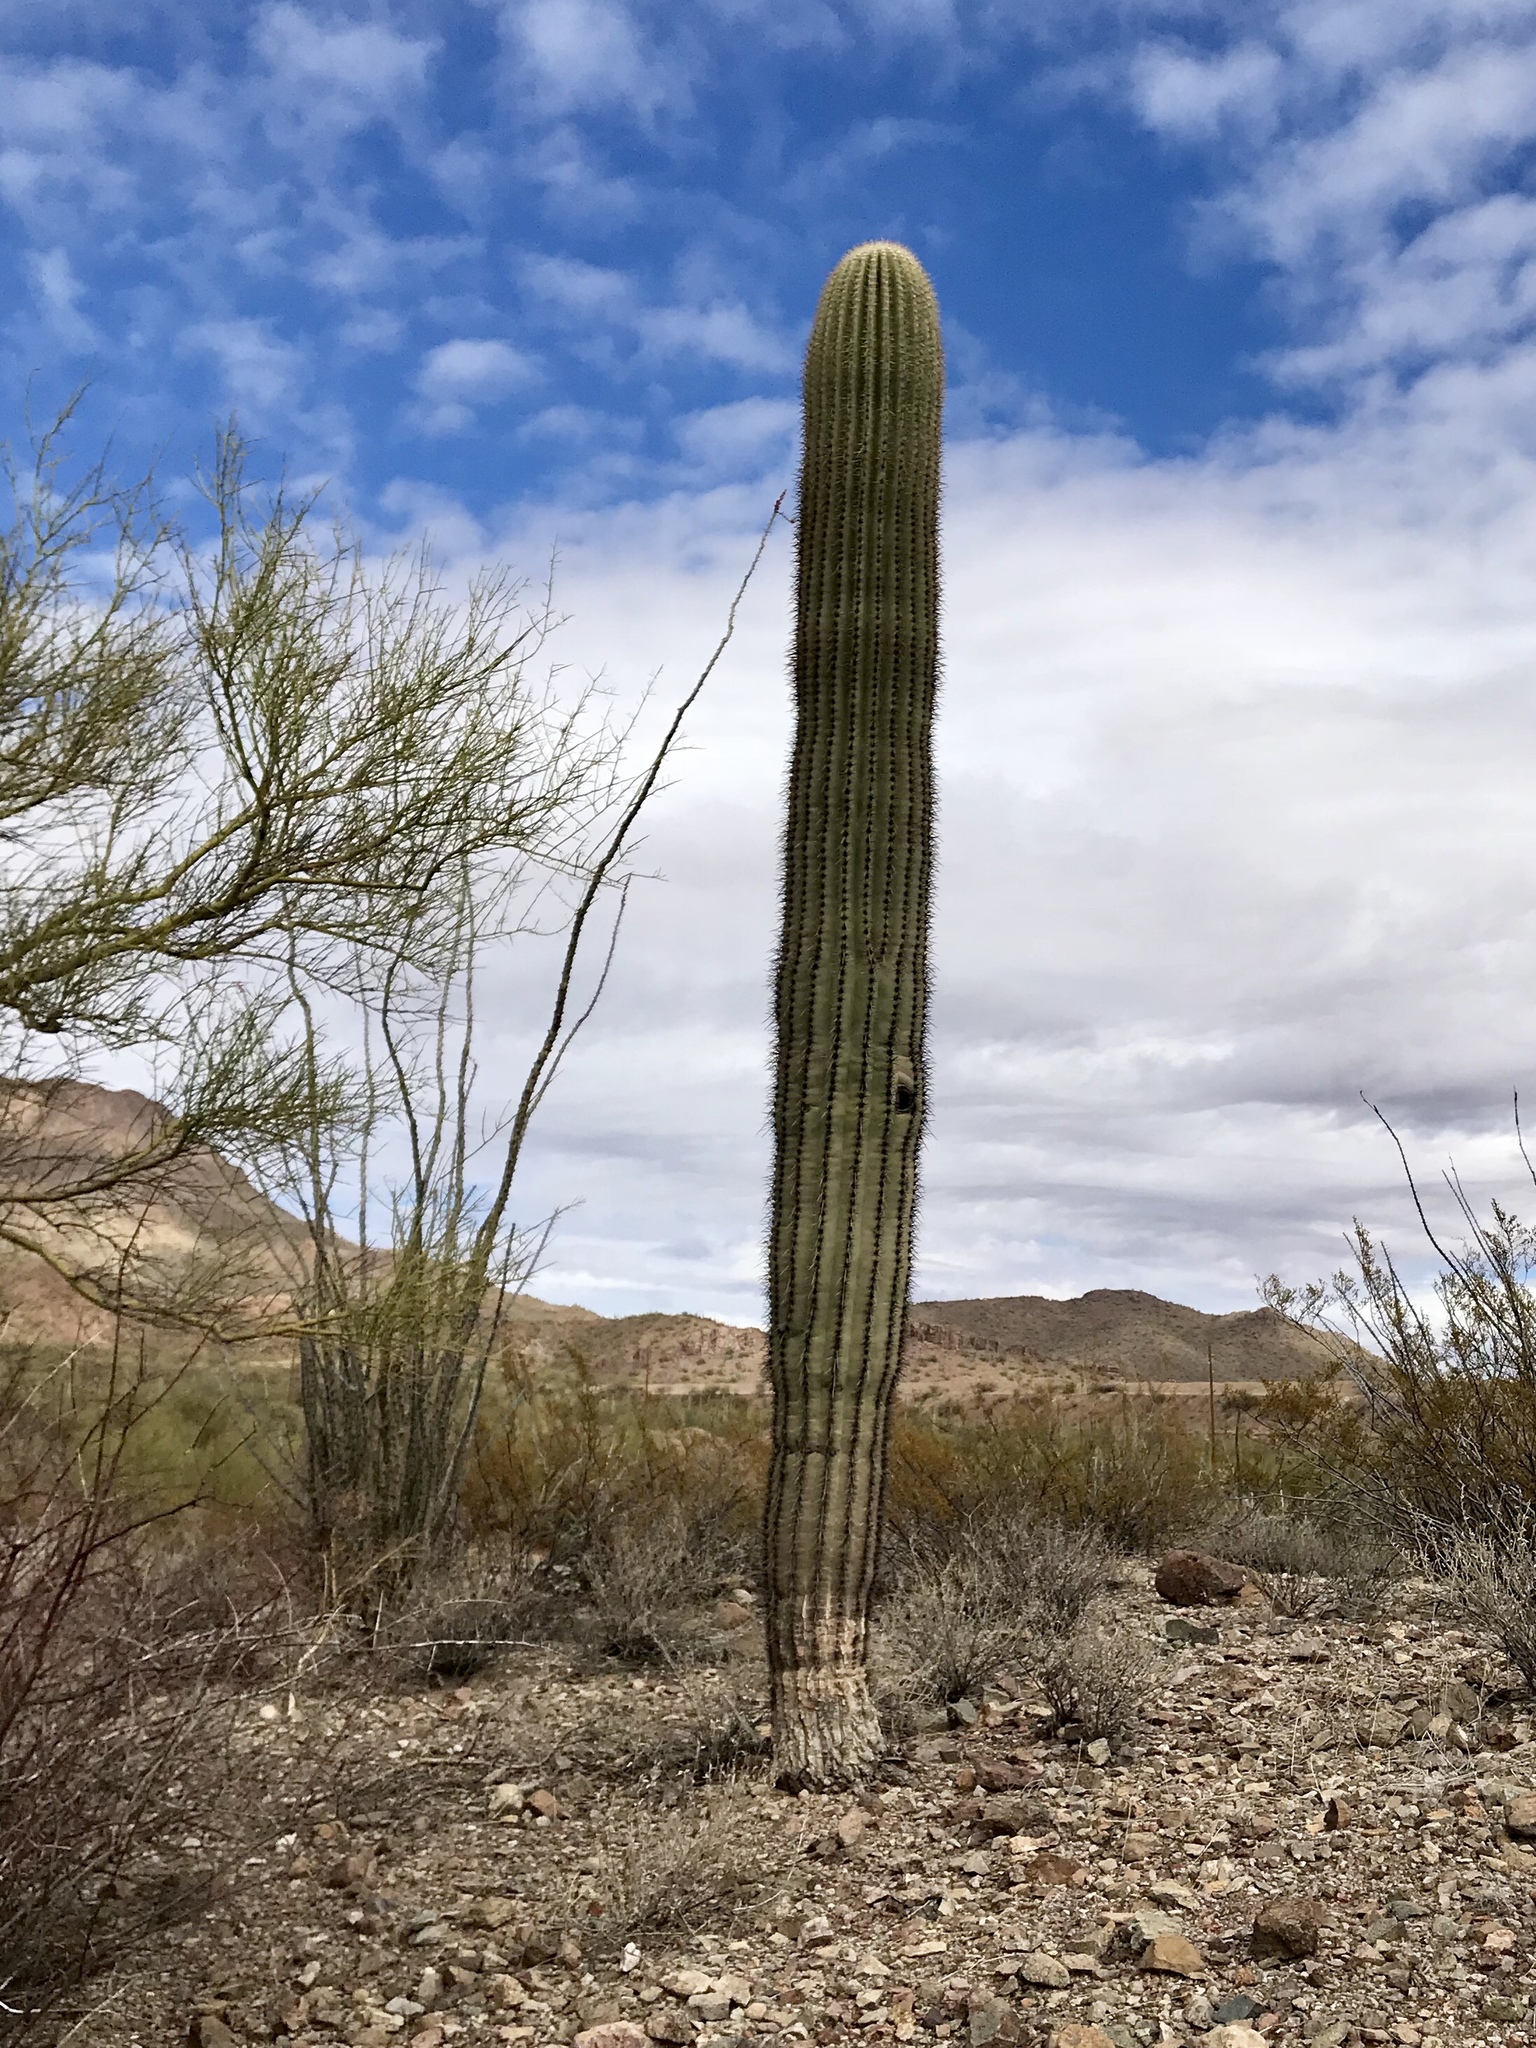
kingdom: Plantae
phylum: Tracheophyta
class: Magnoliopsida
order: Caryophyllales
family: Cactaceae
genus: Carnegiea
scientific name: Carnegiea gigantea
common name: Saguaro
